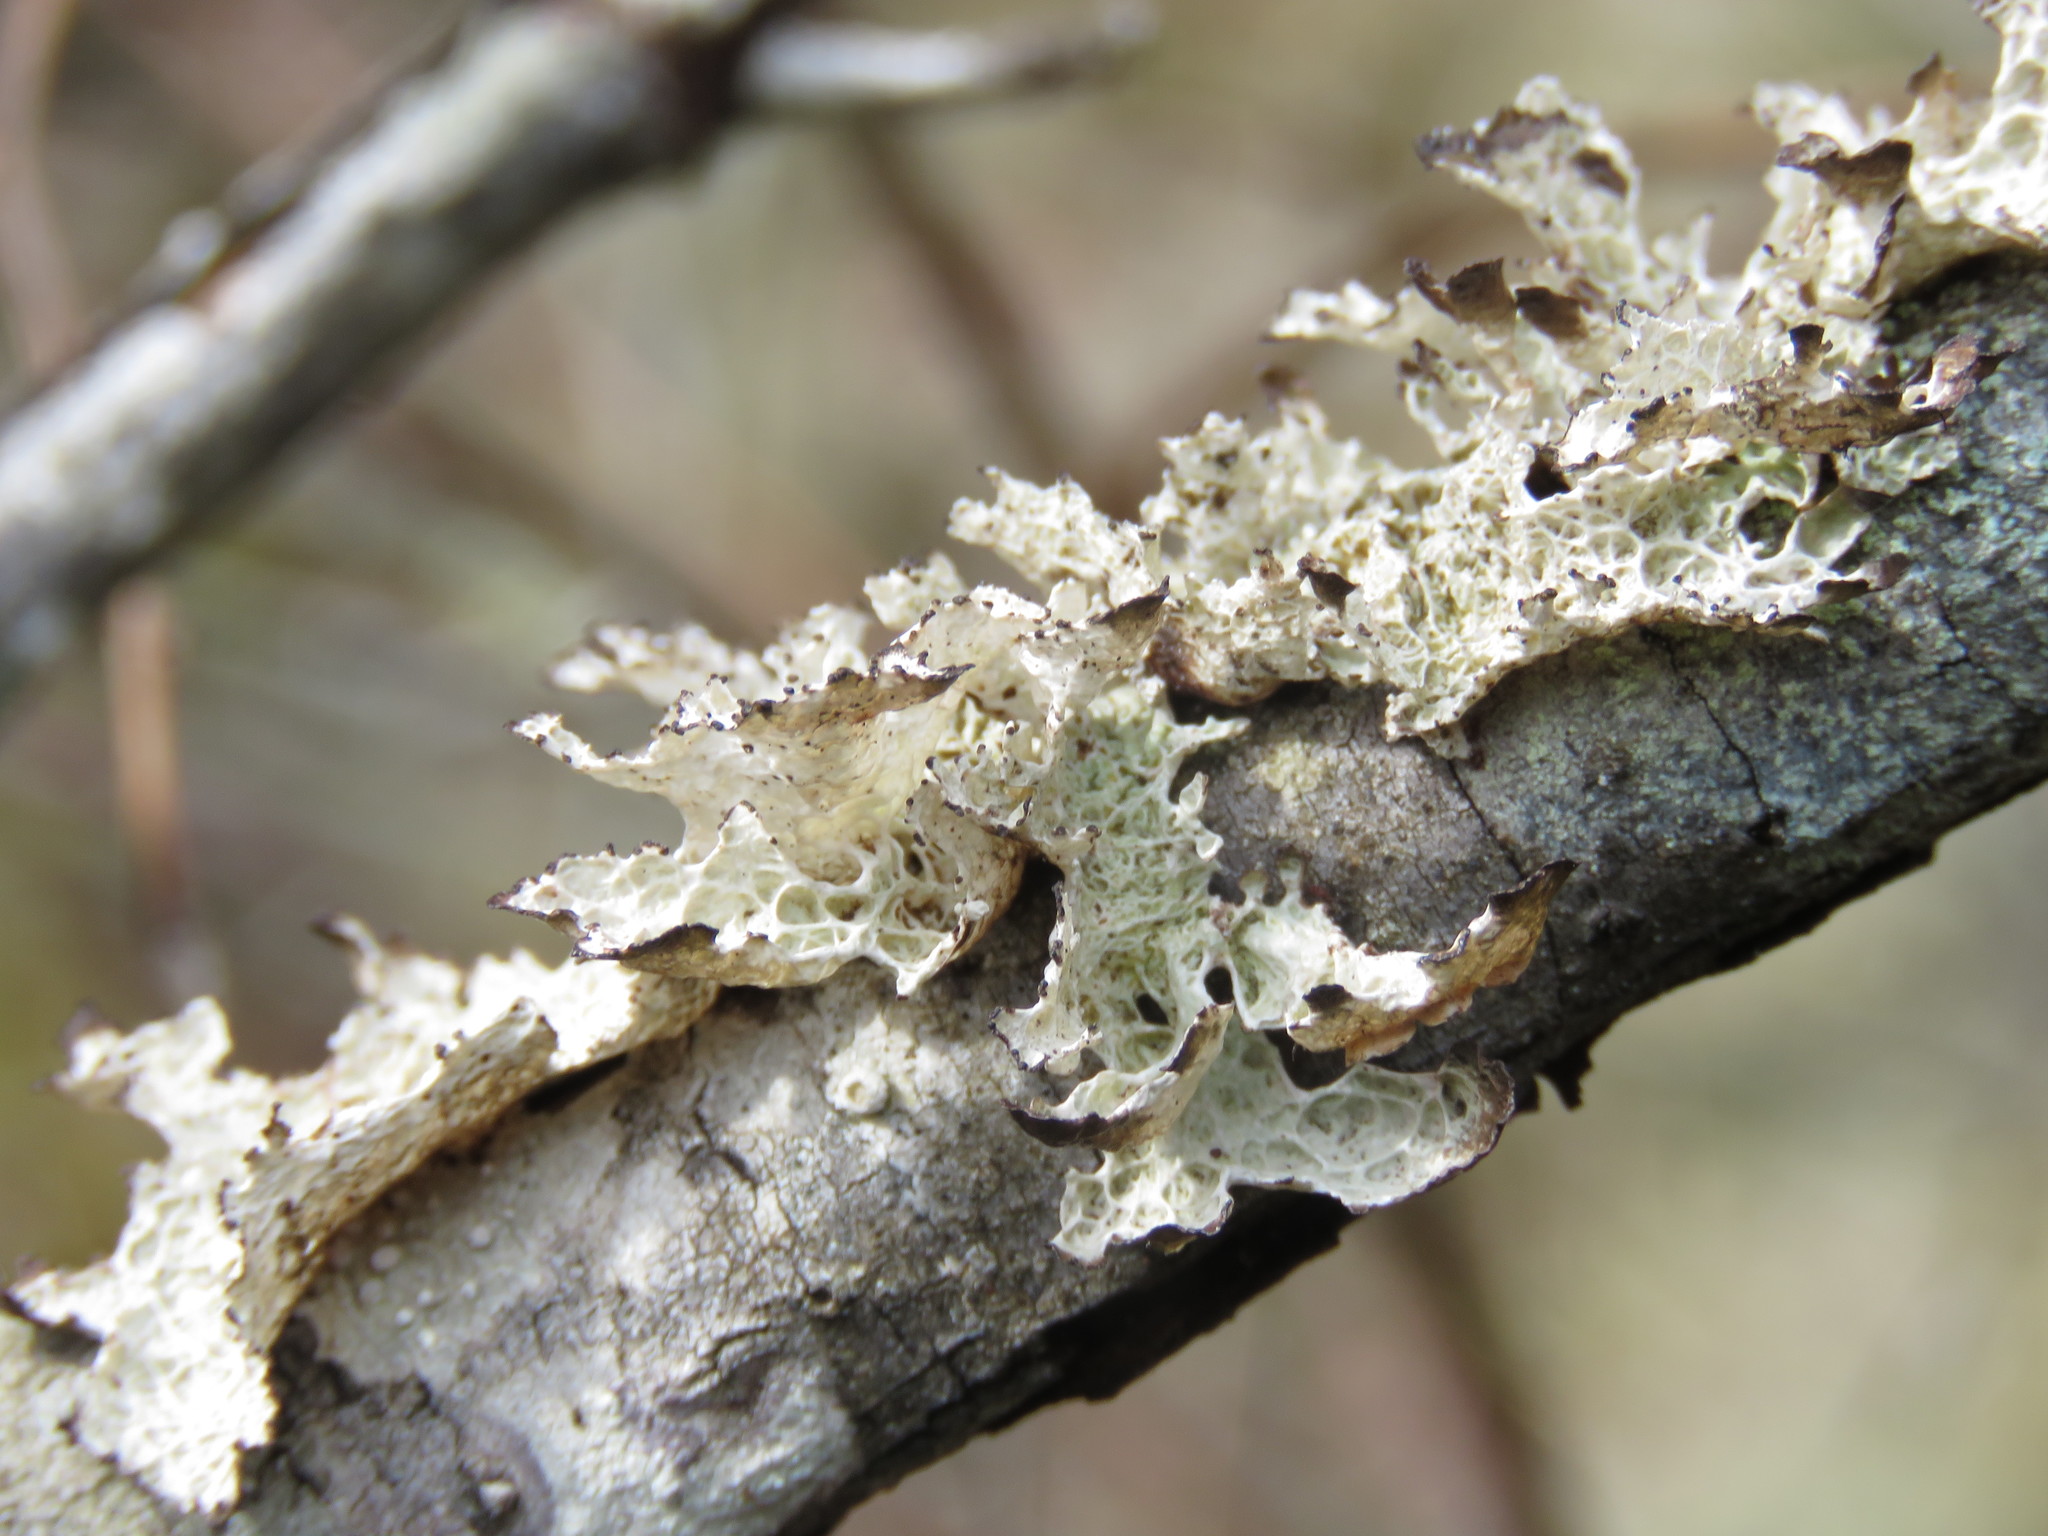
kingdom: Fungi
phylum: Ascomycota
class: Lecanoromycetes
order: Lecanorales
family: Parmeliaceae
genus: Platismatia
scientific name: Platismatia glauca
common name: Varied rag lichen
